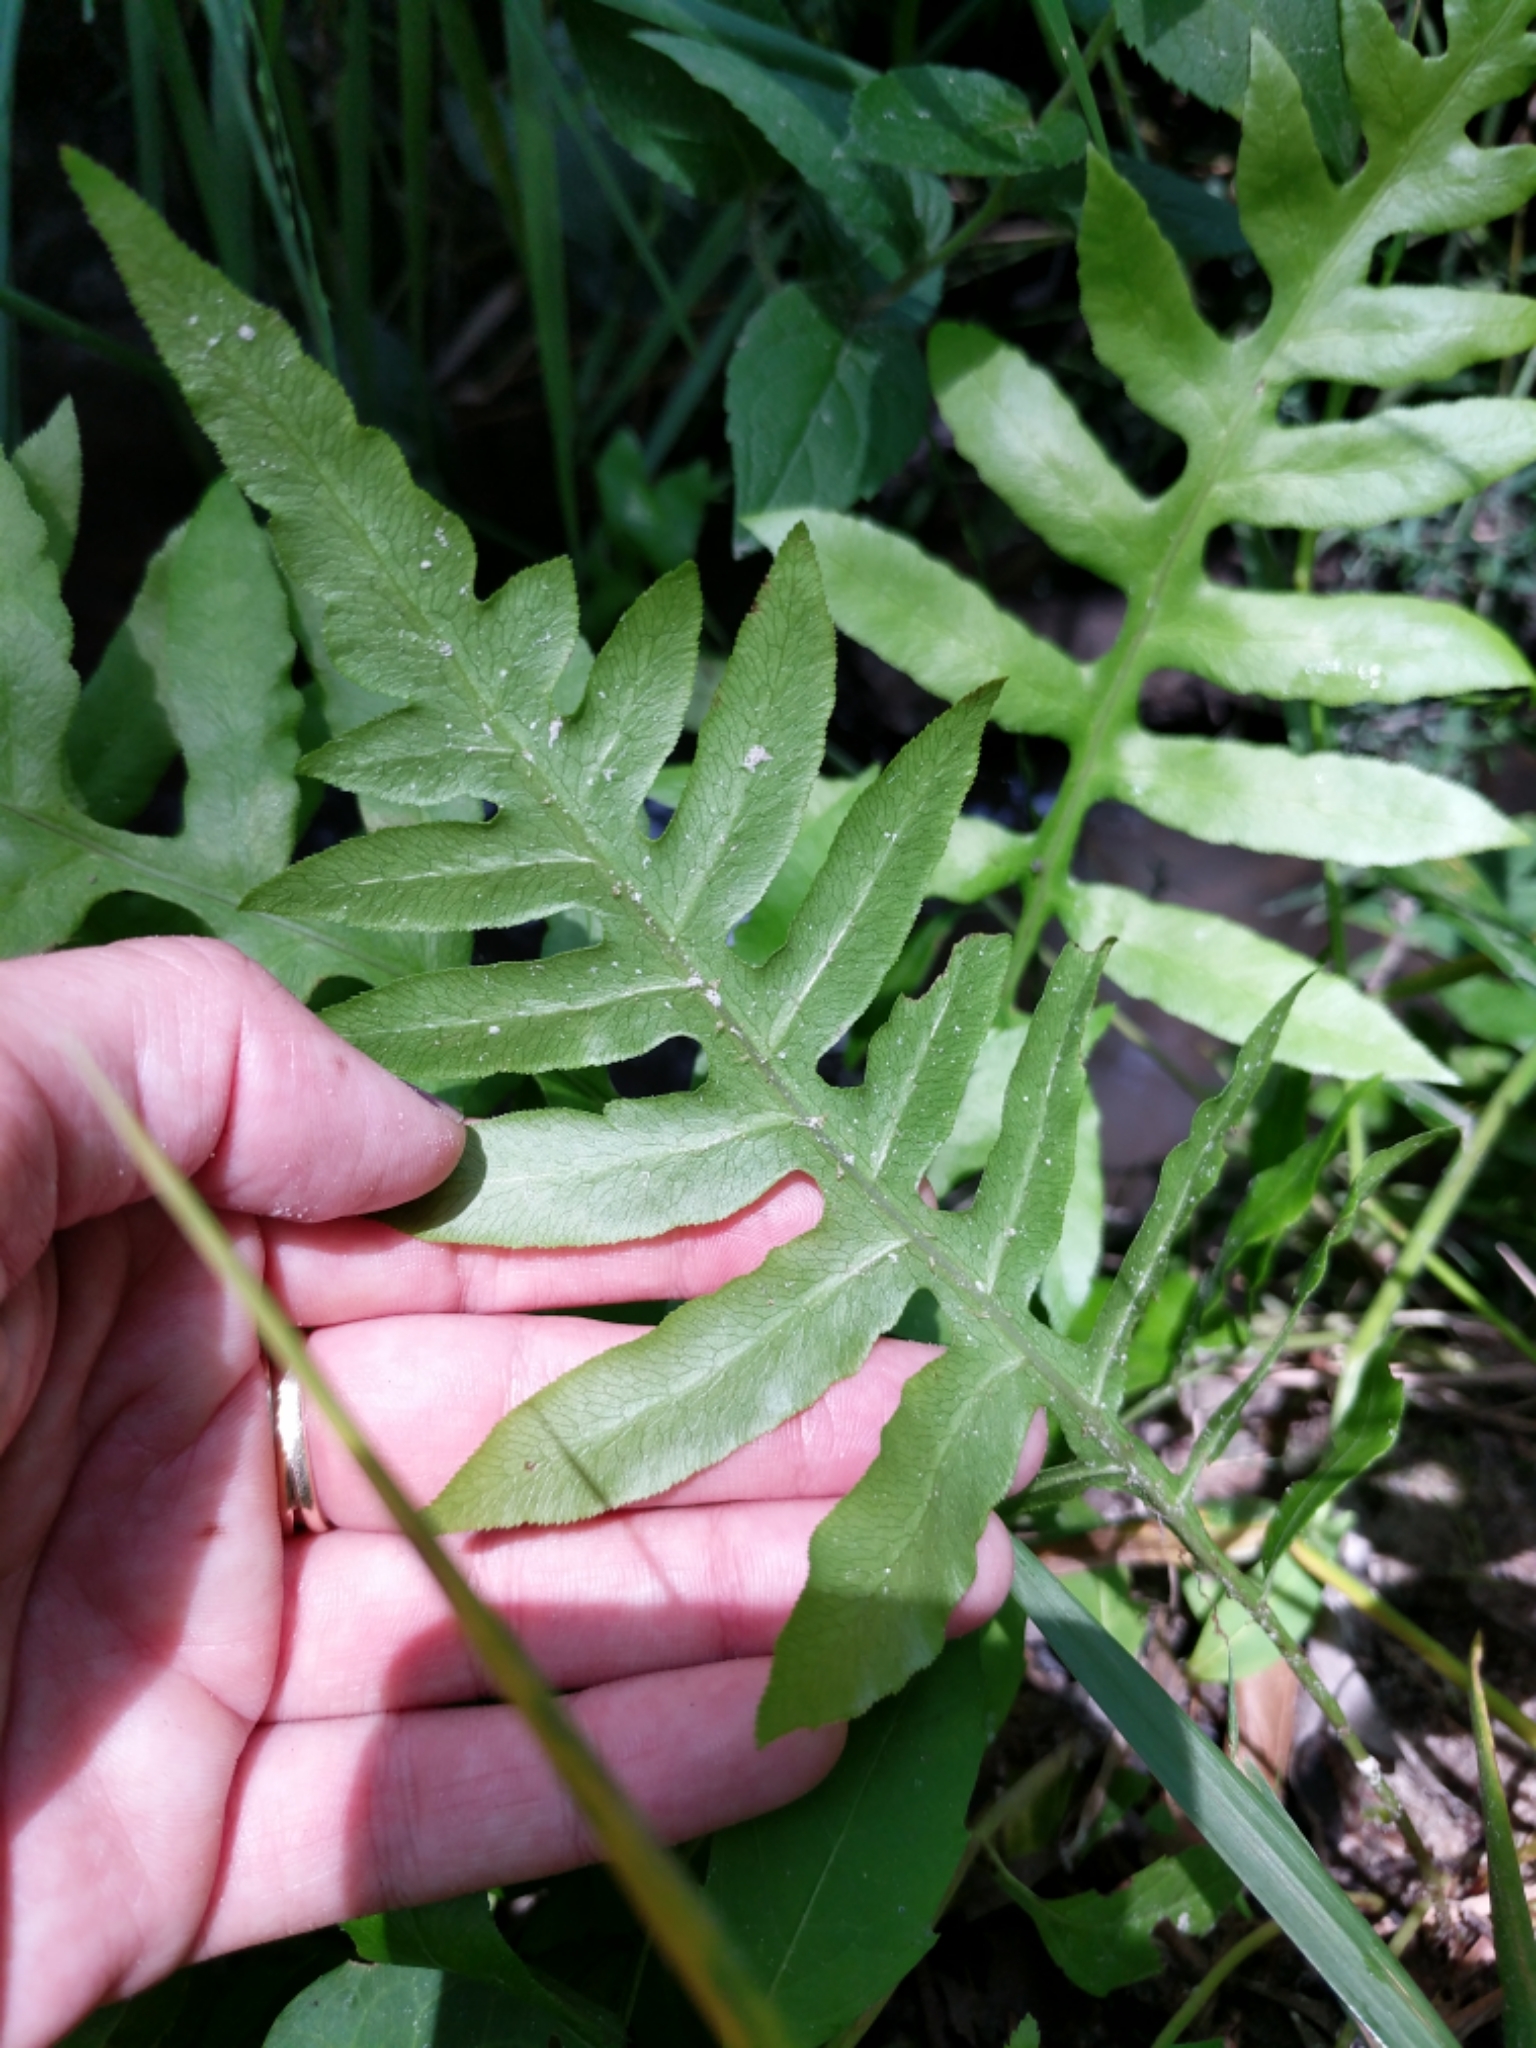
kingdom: Plantae
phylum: Tracheophyta
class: Polypodiopsida
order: Polypodiales
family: Blechnaceae
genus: Lorinseria
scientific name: Lorinseria areolata
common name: Dwarf chain fern
